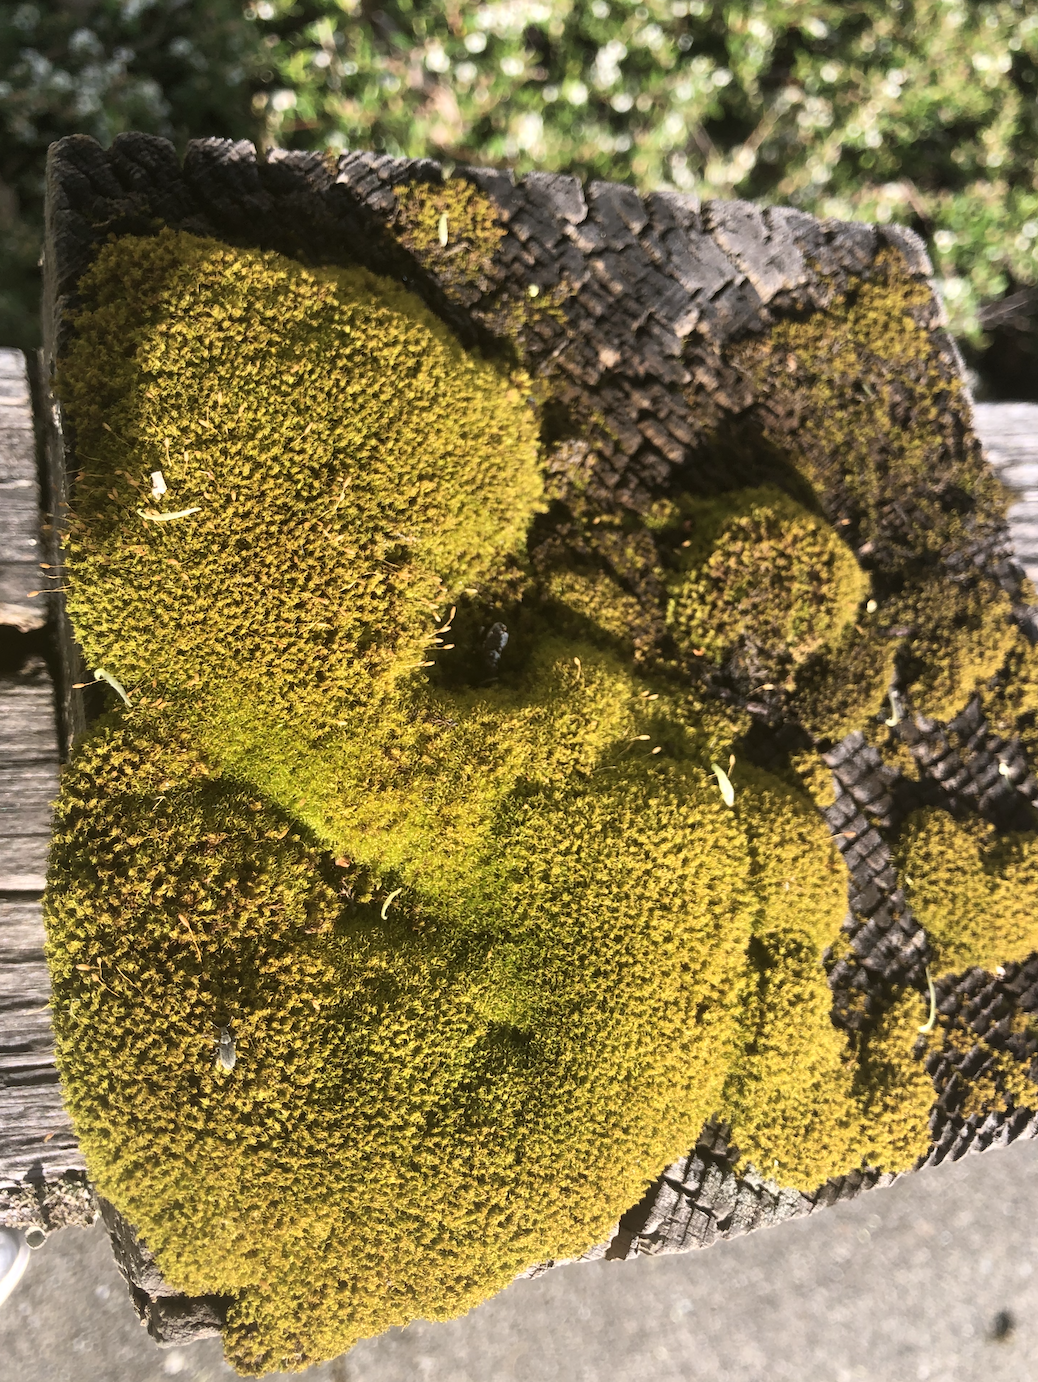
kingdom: Plantae
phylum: Bryophyta
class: Bryopsida
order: Dicranales
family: Rhabdoweisiaceae
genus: Dicranoweisia
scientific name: Dicranoweisia cirrata
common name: Common pincushion
